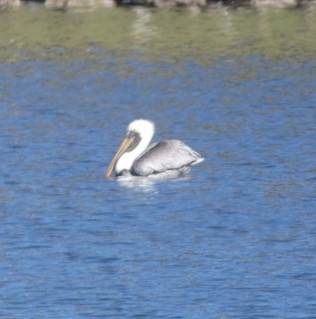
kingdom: Animalia
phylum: Chordata
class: Aves
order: Pelecaniformes
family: Pelecanidae
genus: Pelecanus
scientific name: Pelecanus occidentalis
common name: Brown pelican
